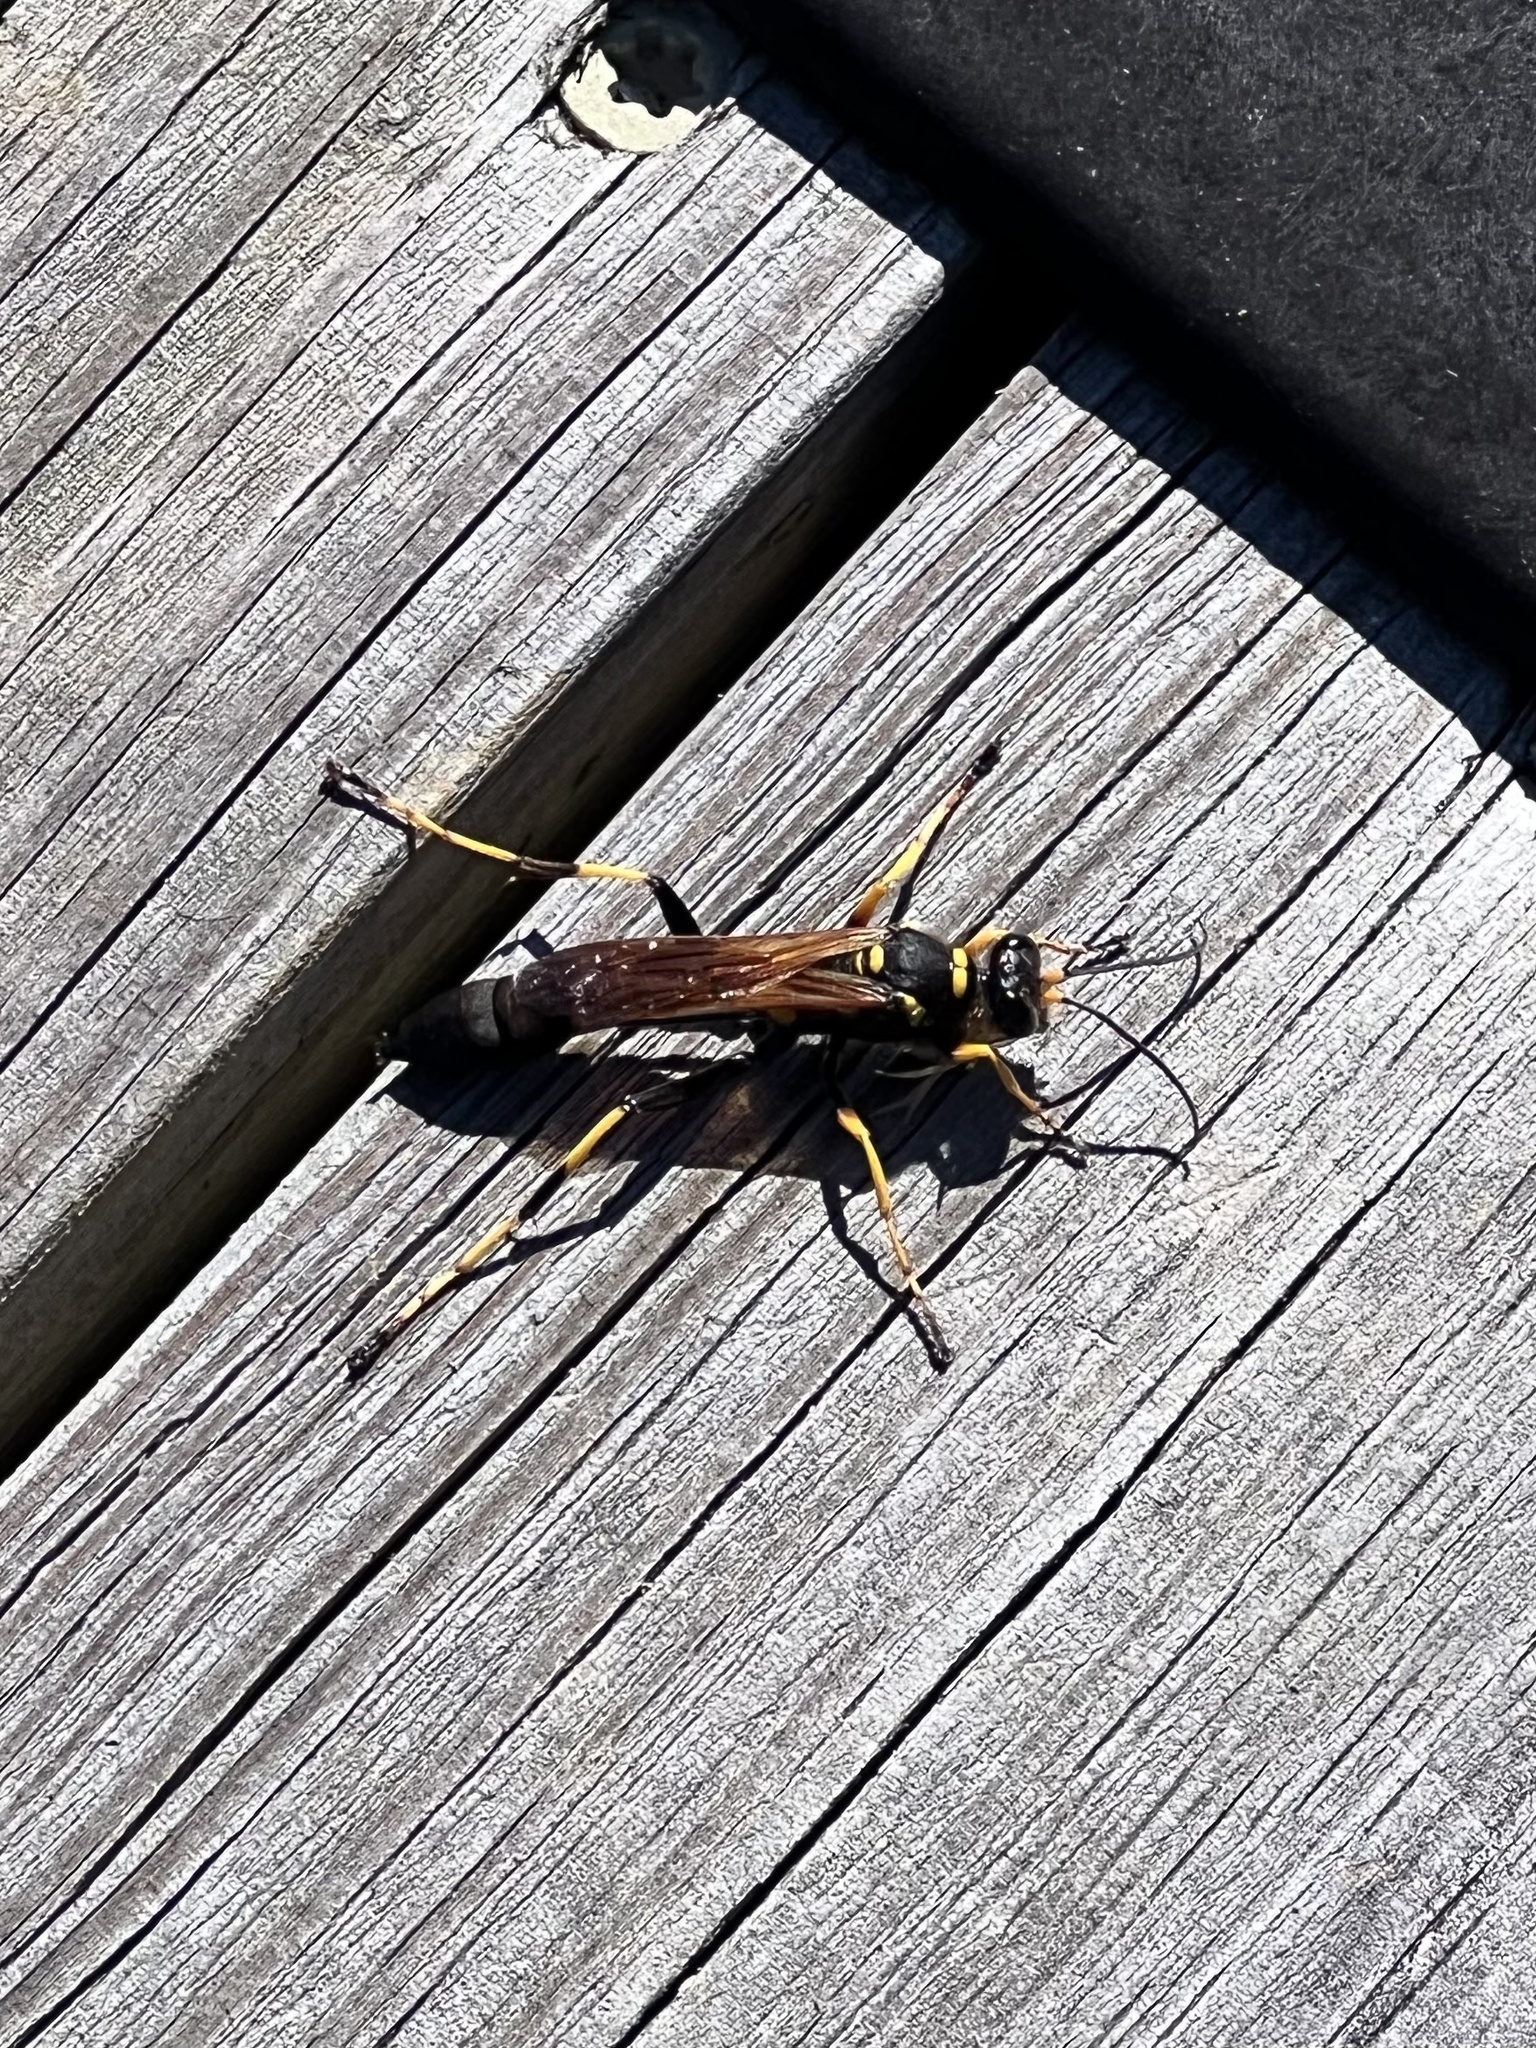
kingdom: Animalia
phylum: Arthropoda
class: Insecta
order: Hymenoptera
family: Sphecidae
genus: Sceliphron
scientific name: Sceliphron caementarium
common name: Mud dauber
